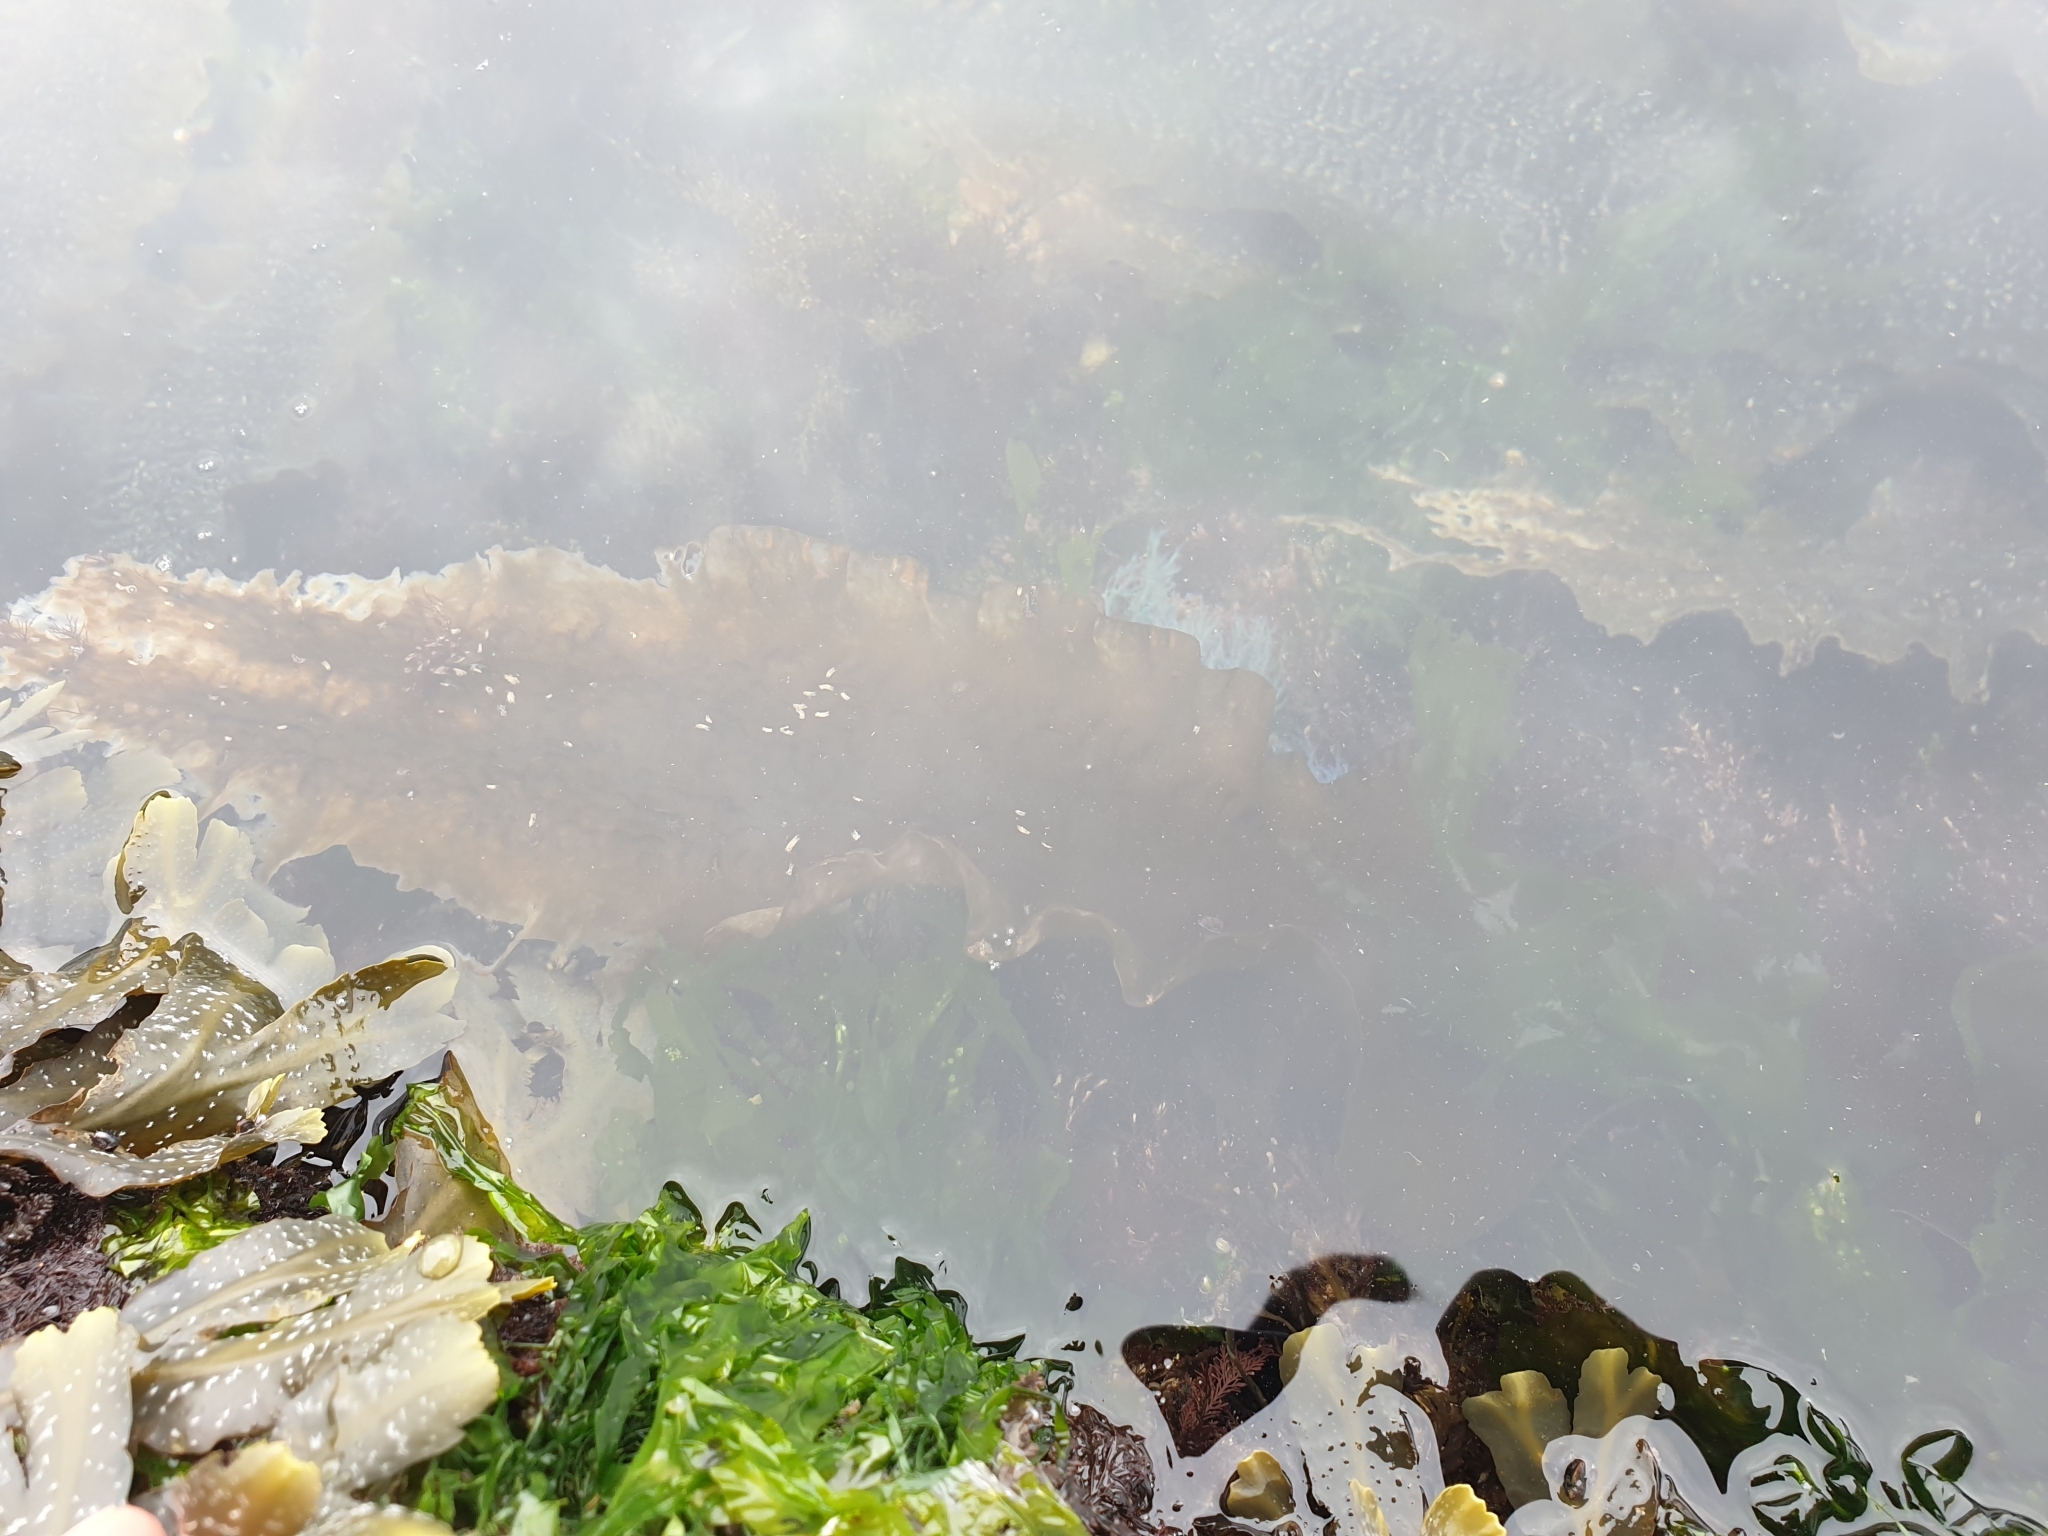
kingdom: Chromista
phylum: Ochrophyta
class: Phaeophyceae
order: Laminariales
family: Laminariaceae
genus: Saccharina
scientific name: Saccharina latissima
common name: Poor man's weather glass
